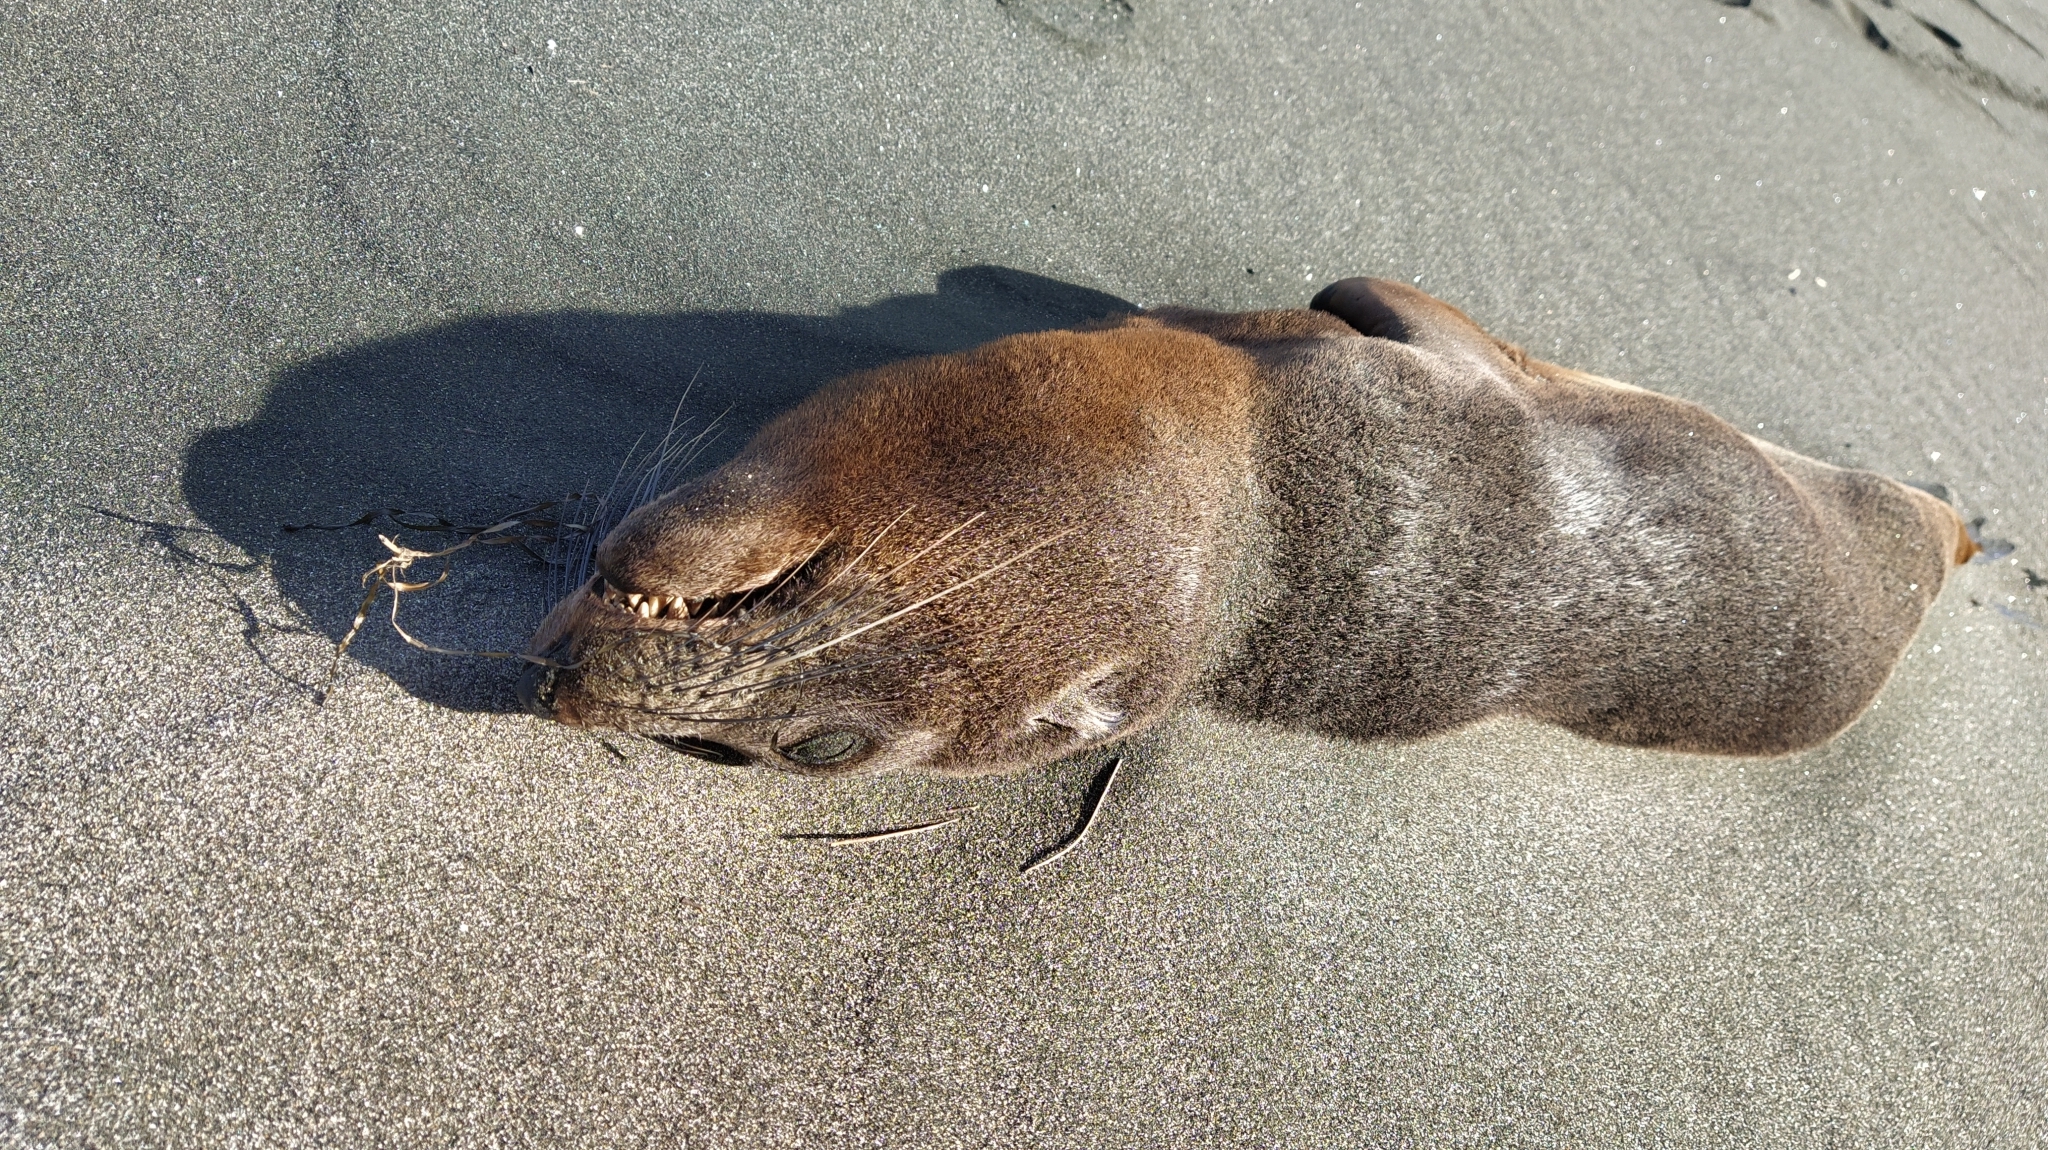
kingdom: Animalia
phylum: Chordata
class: Mammalia
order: Carnivora
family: Otariidae
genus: Arctocephalus
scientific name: Arctocephalus forsteri
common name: New zealand fur seal
